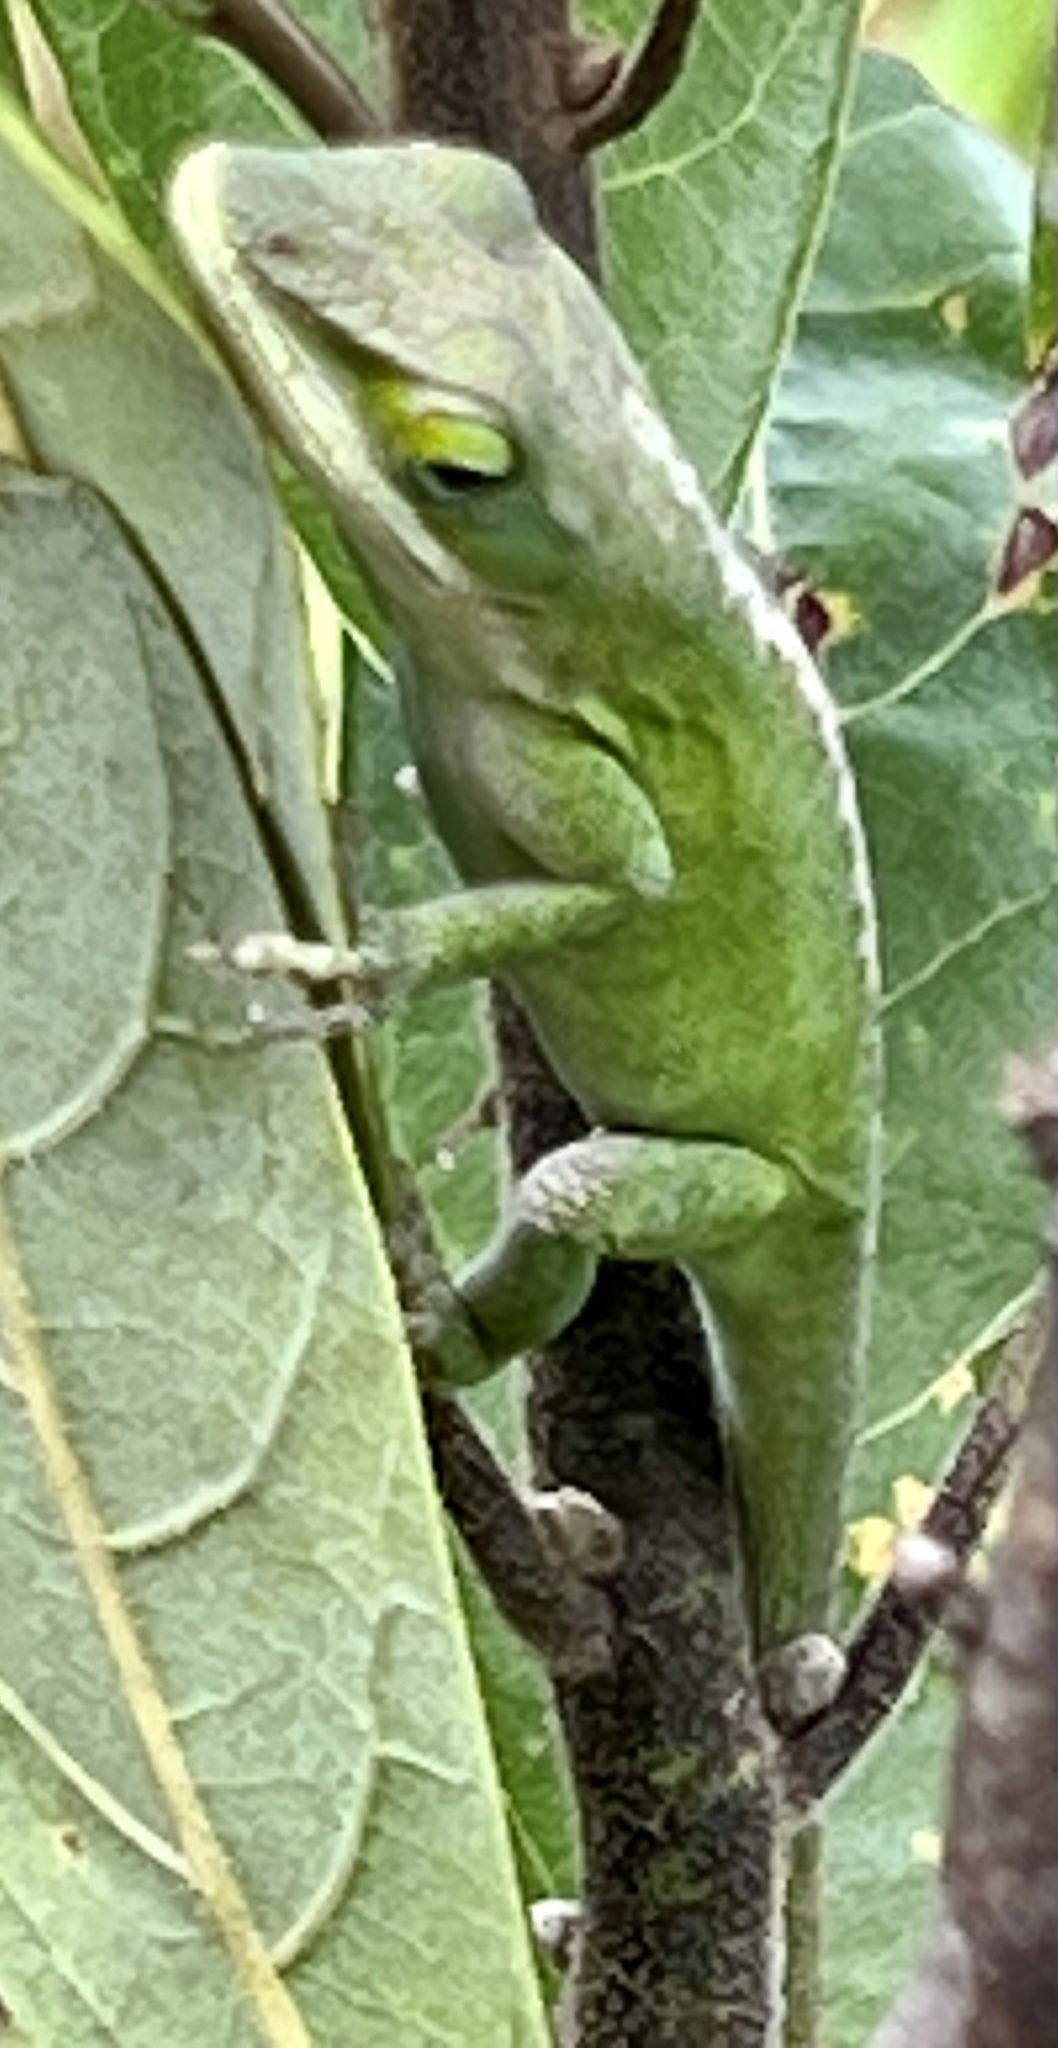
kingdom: Animalia
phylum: Chordata
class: Squamata
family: Dactyloidae
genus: Anolis
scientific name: Anolis carolinensis
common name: Green anole
